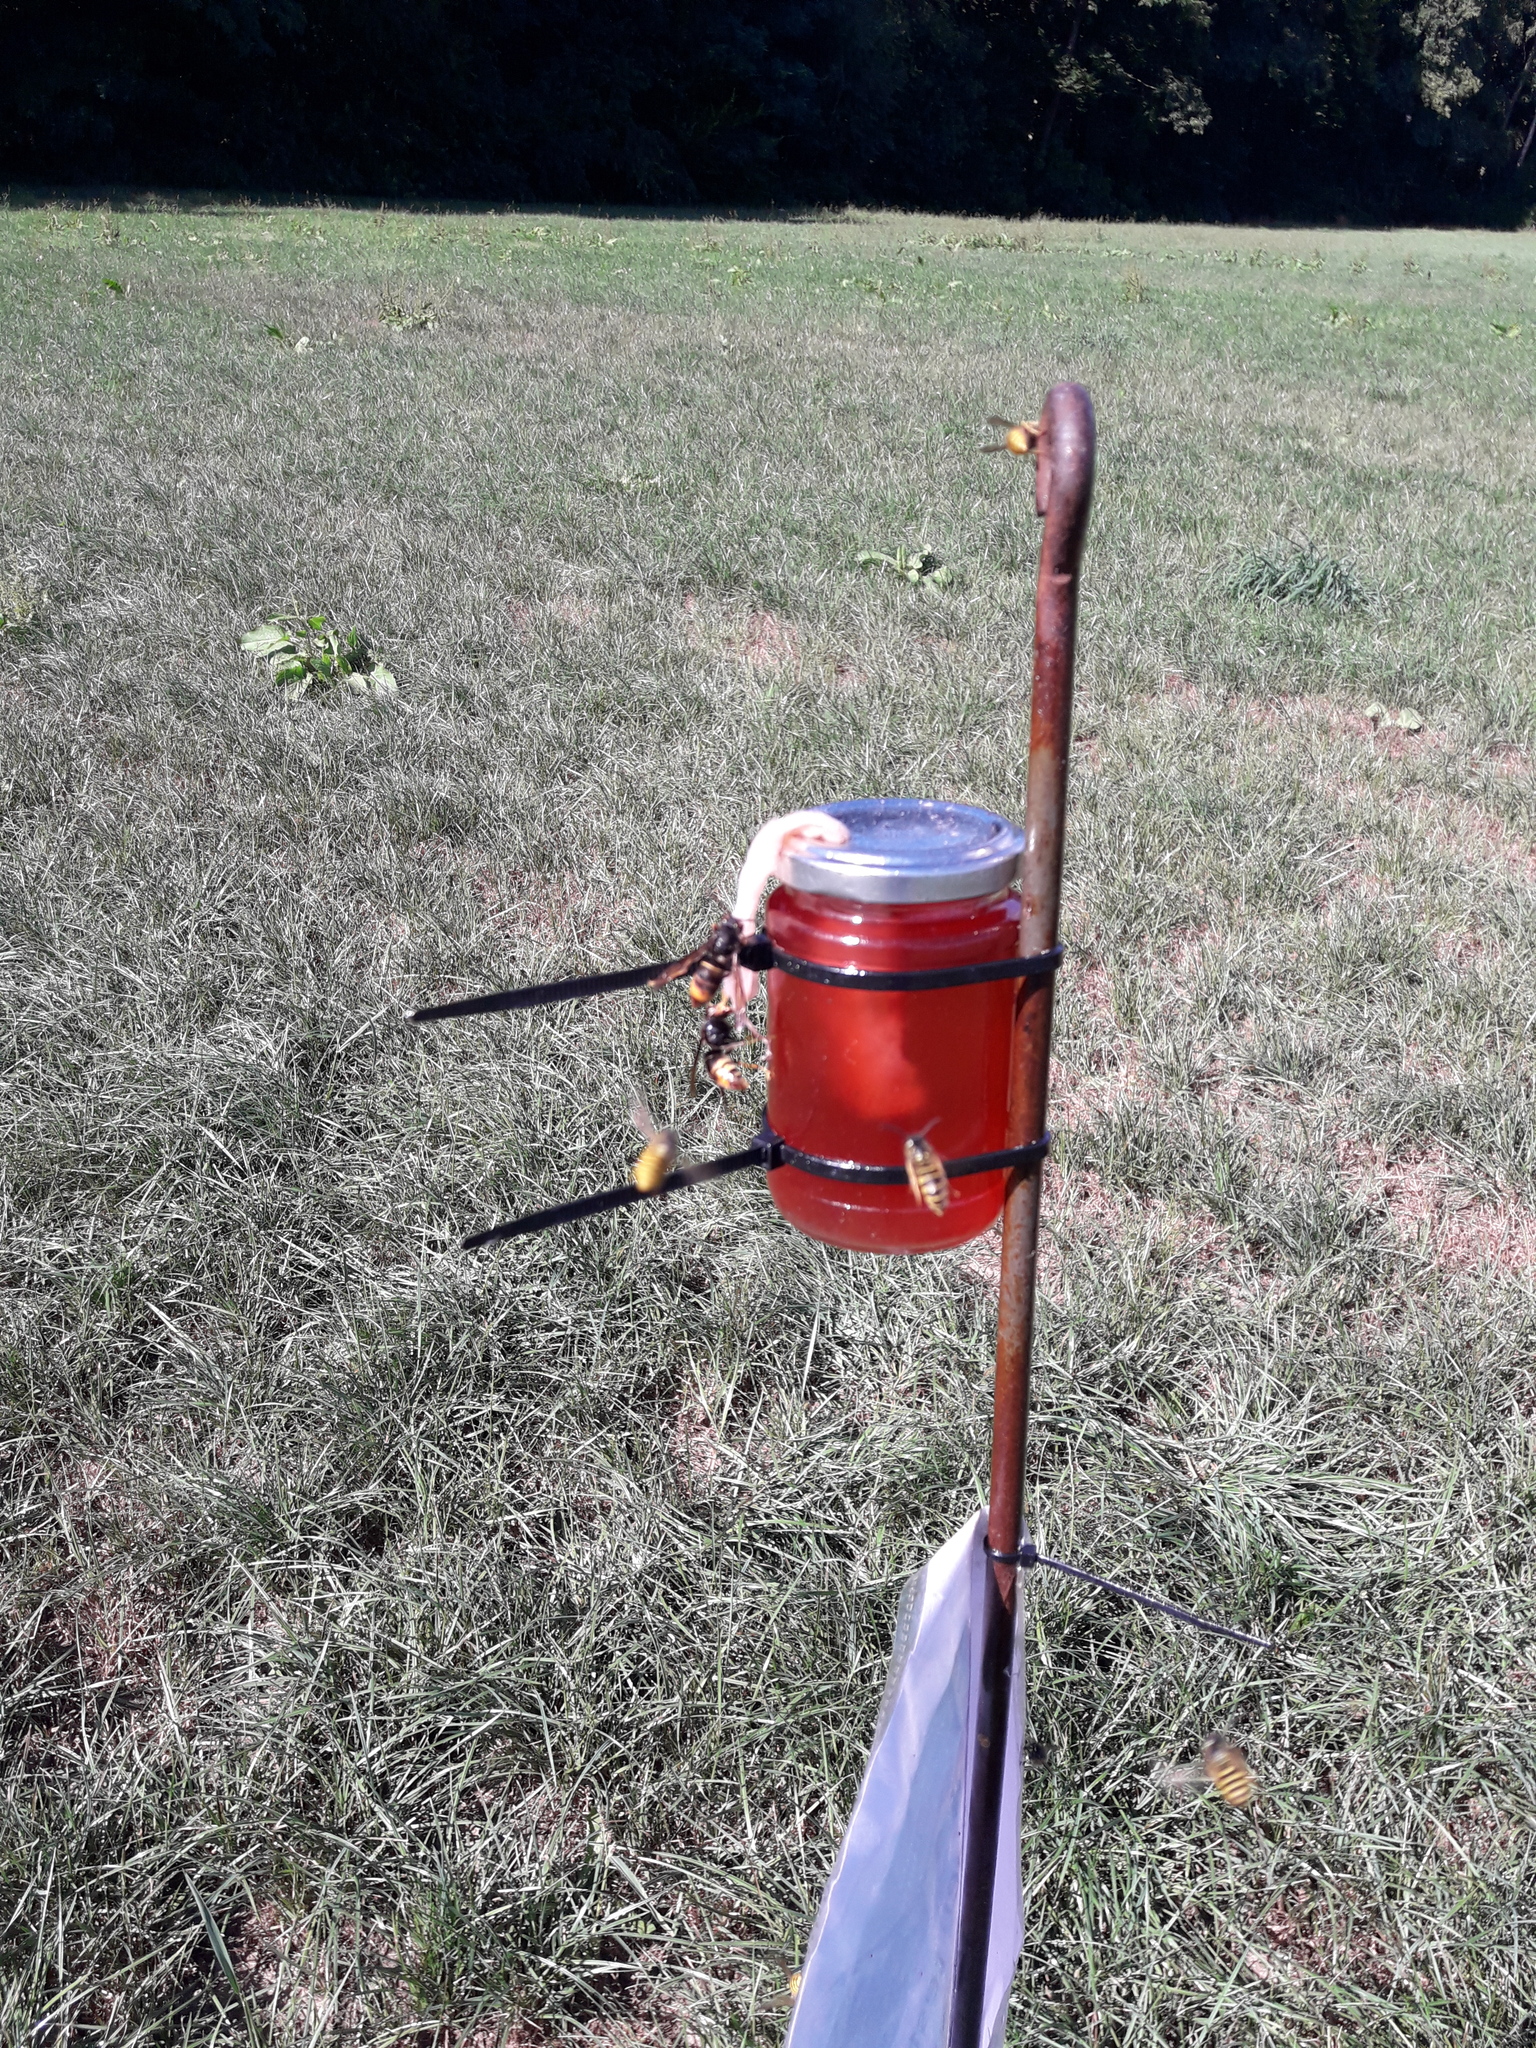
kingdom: Animalia
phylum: Arthropoda
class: Insecta
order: Hymenoptera
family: Vespidae
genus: Vespa
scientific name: Vespa velutina
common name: Asian hornet
